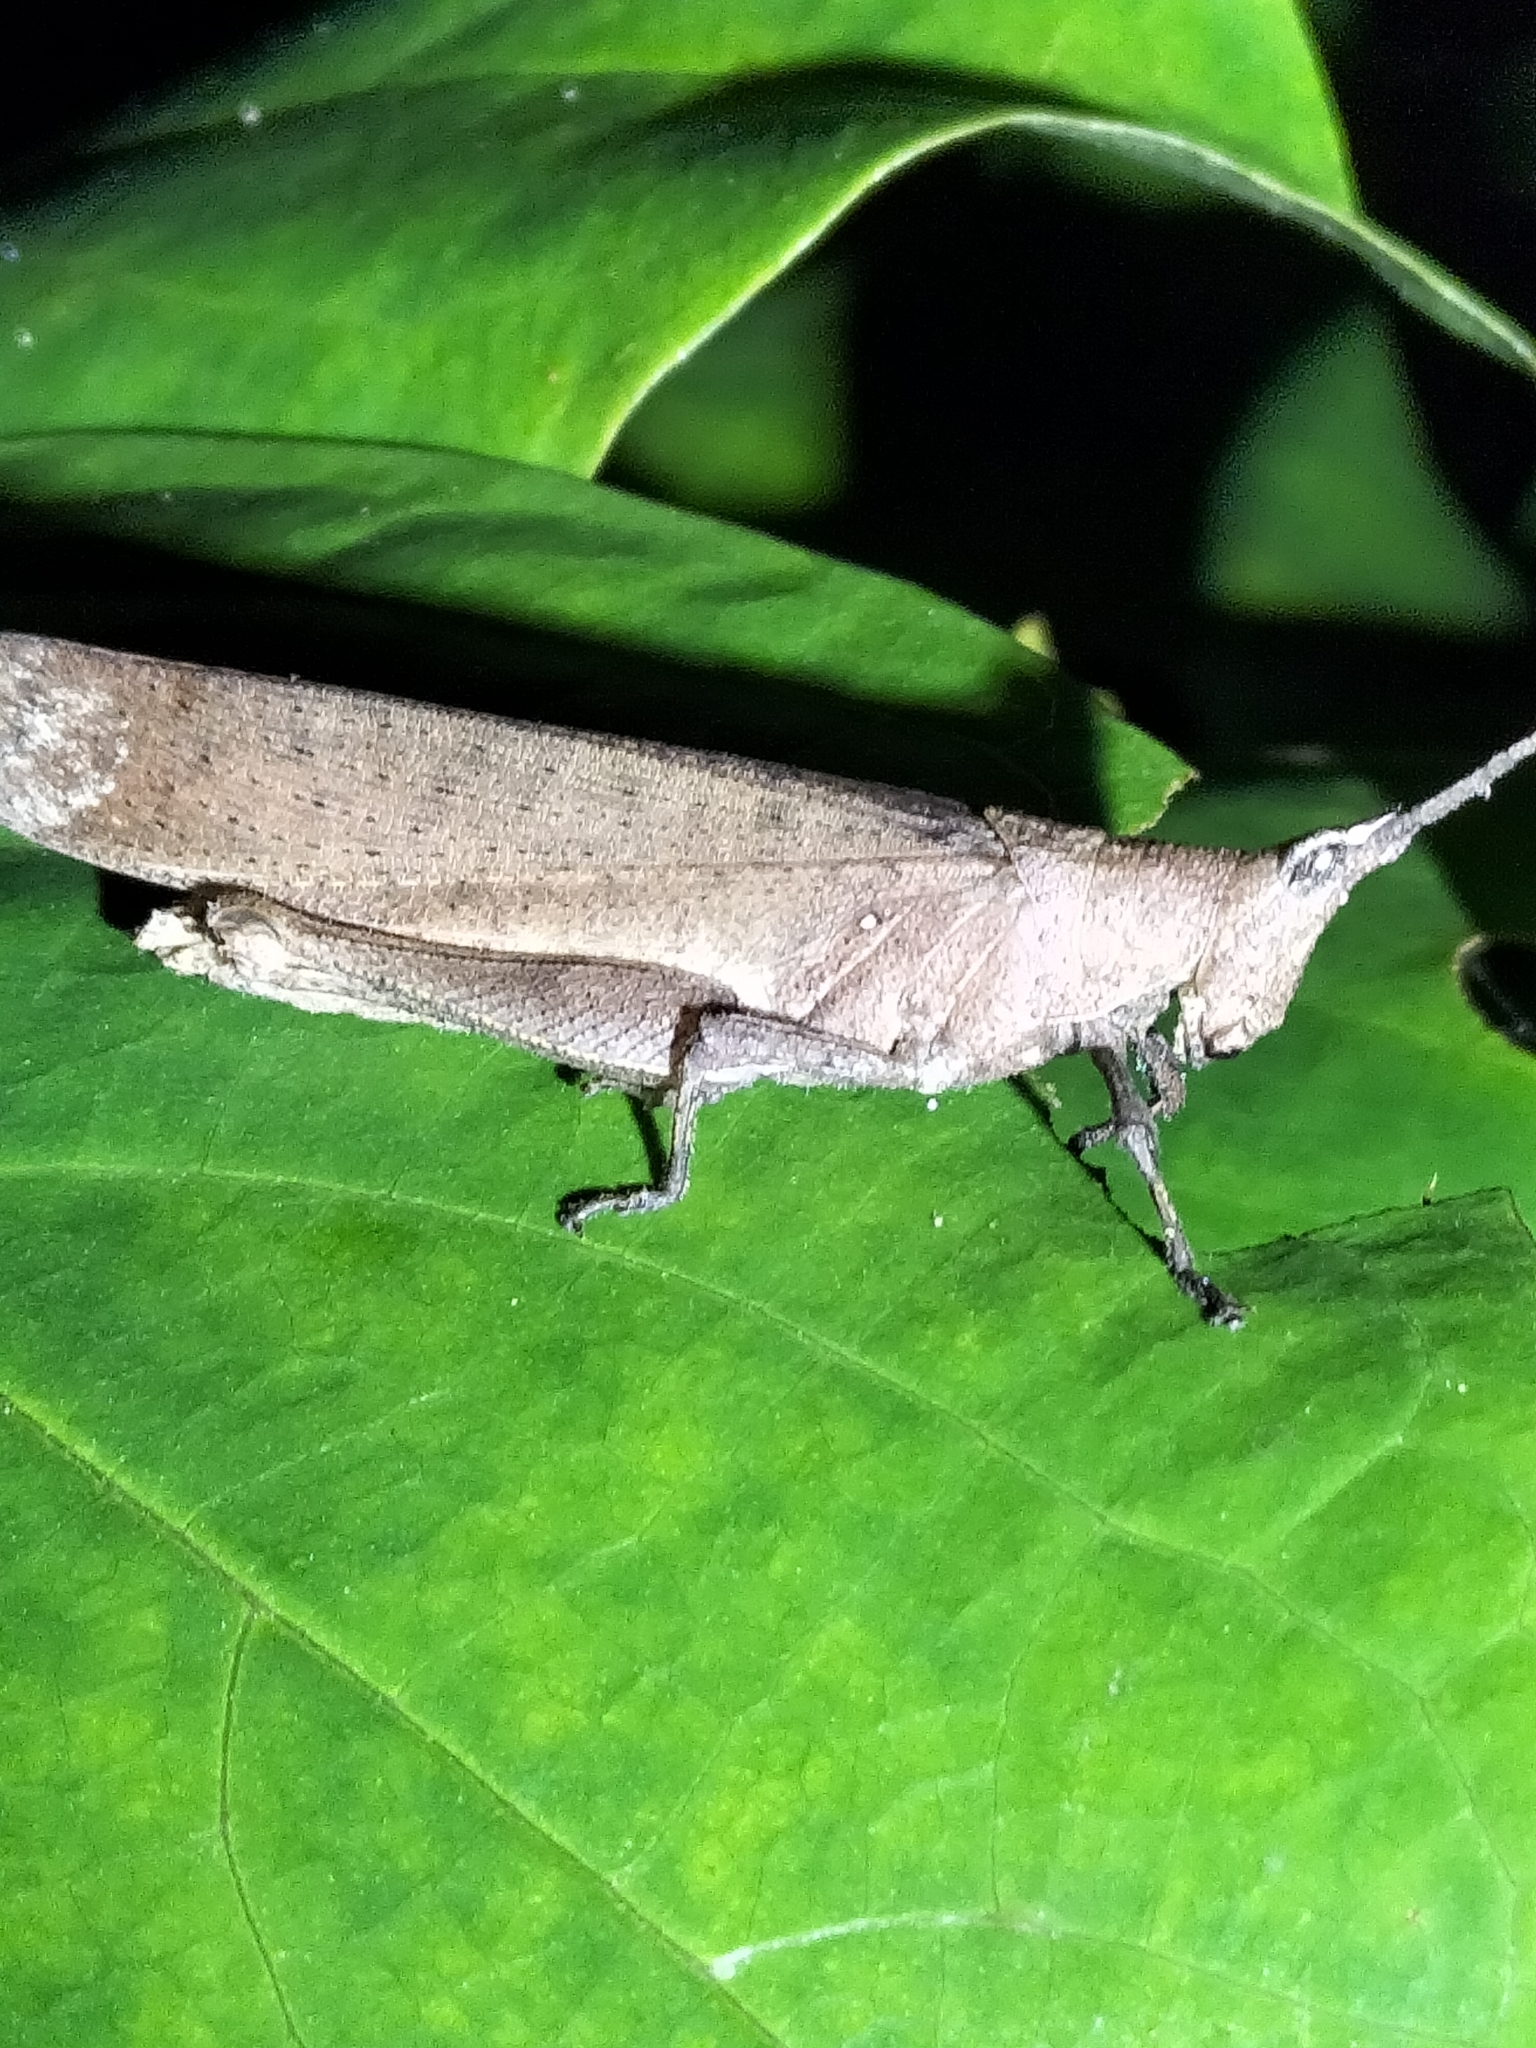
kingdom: Animalia
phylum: Arthropoda
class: Insecta
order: Orthoptera
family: Pyrgomorphidae
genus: Desmoptera
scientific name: Desmoptera truncatipennis
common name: Large forest pyrgomorph
